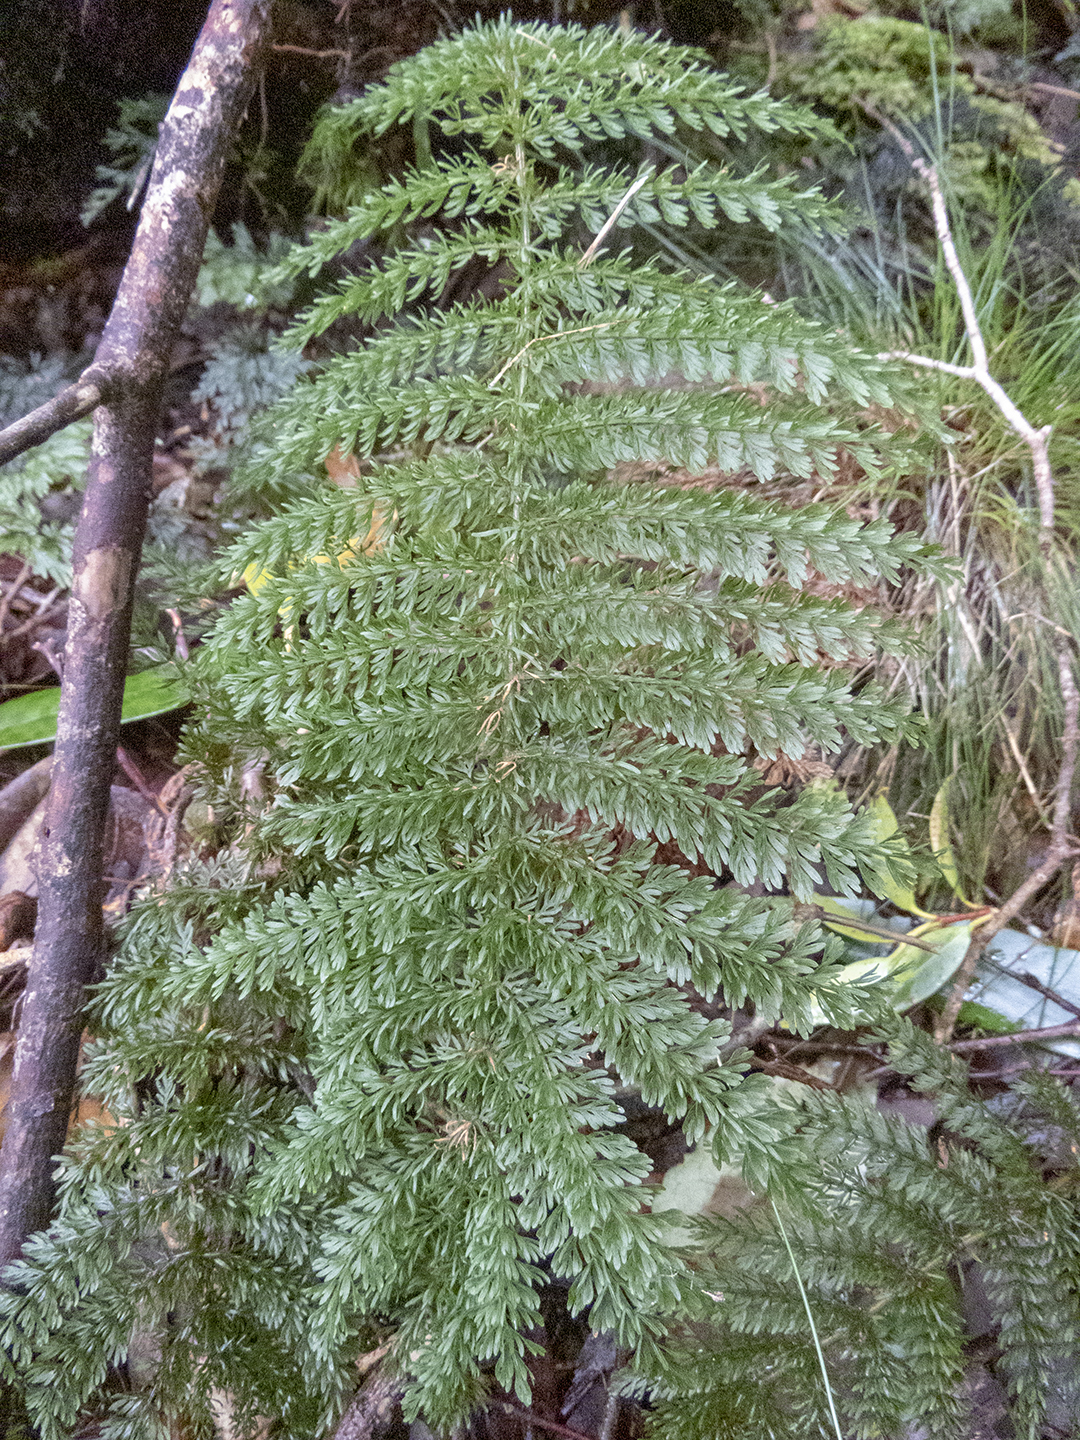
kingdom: Plantae
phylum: Tracheophyta
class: Polypodiopsida
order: Osmundales
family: Osmundaceae
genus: Leptopteris
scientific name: Leptopteris superba
